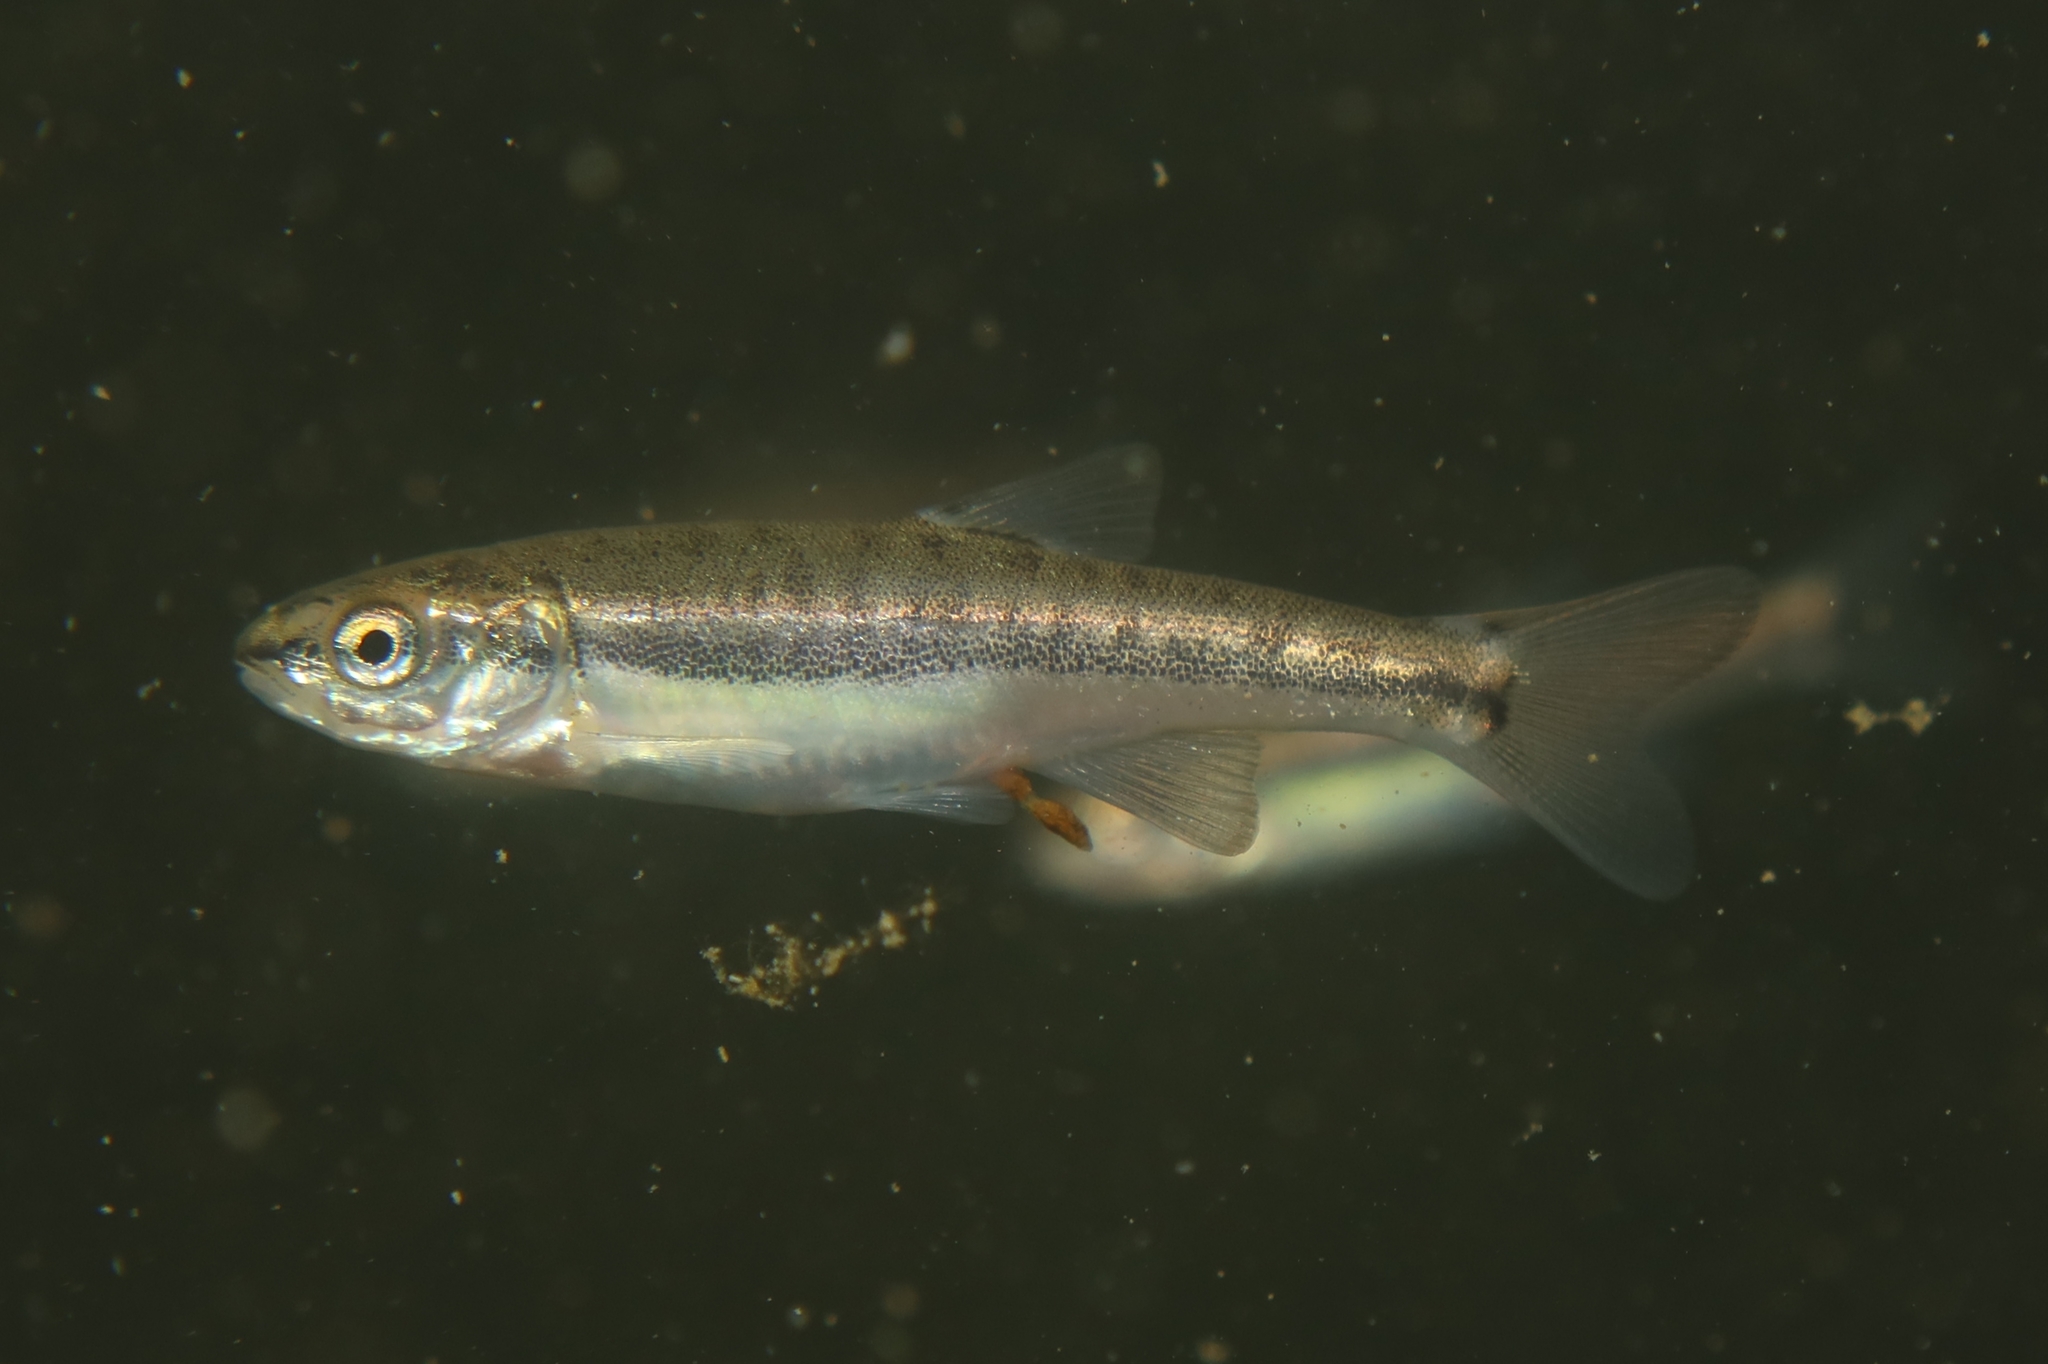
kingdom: Animalia
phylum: Chordata
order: Cypriniformes
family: Cyprinidae
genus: Phoxinus
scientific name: Phoxinus septimaniae
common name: Languedoc minnow
